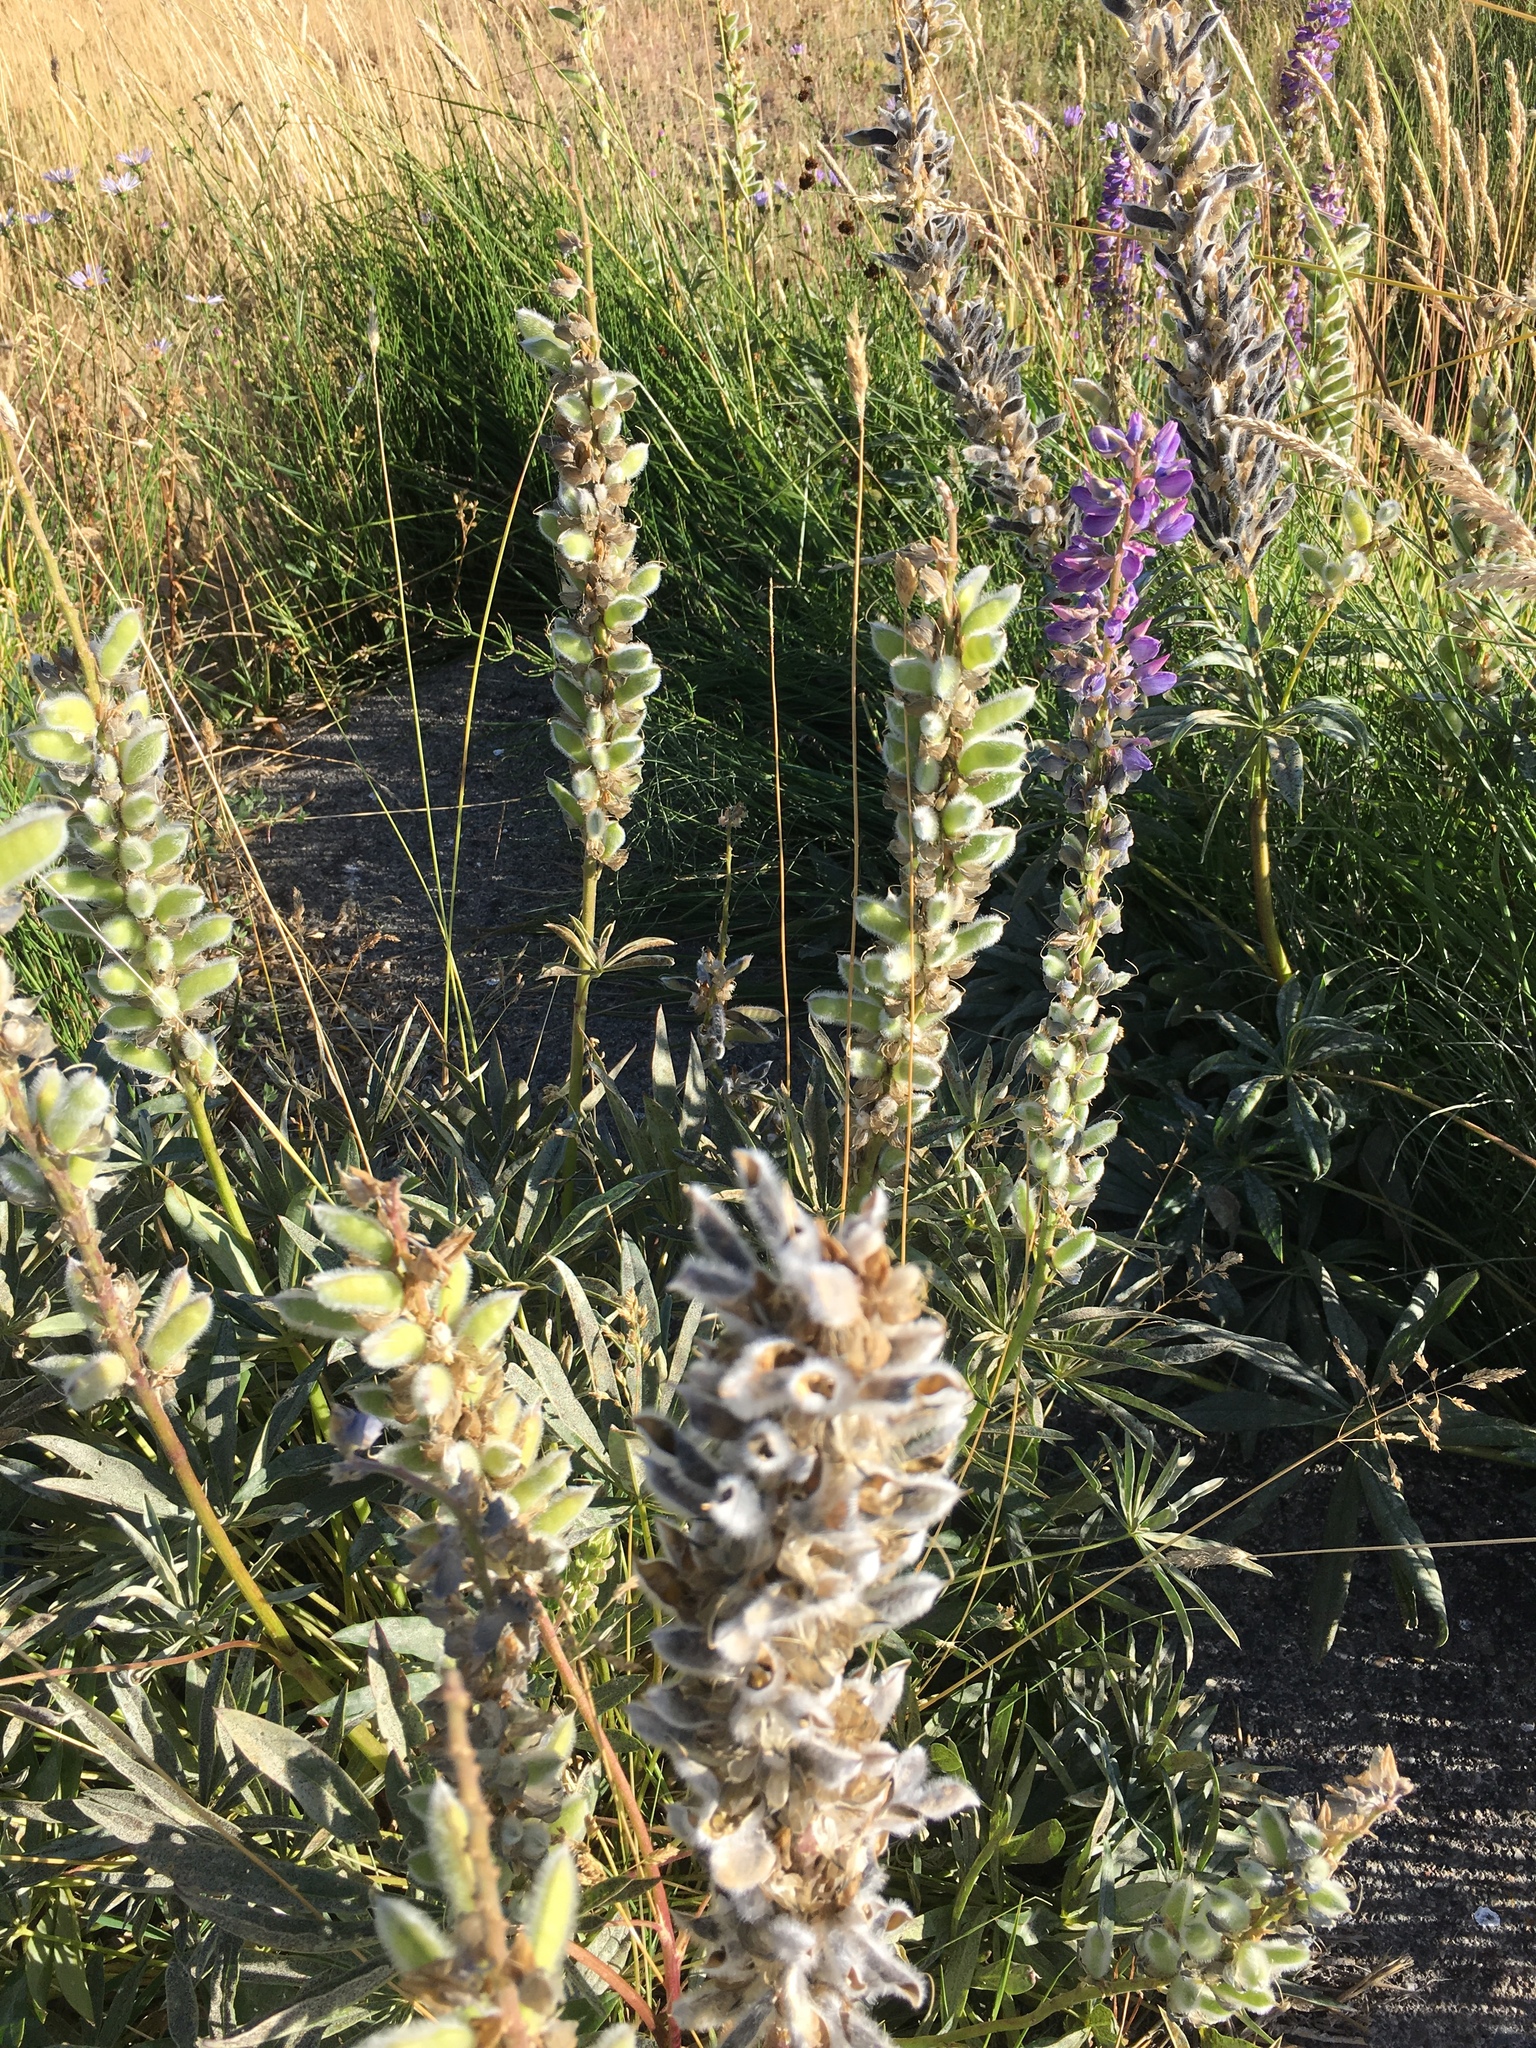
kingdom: Plantae
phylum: Tracheophyta
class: Magnoliopsida
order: Fabales
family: Fabaceae
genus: Lupinus
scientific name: Lupinus polyphyllus
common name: Garden lupin
